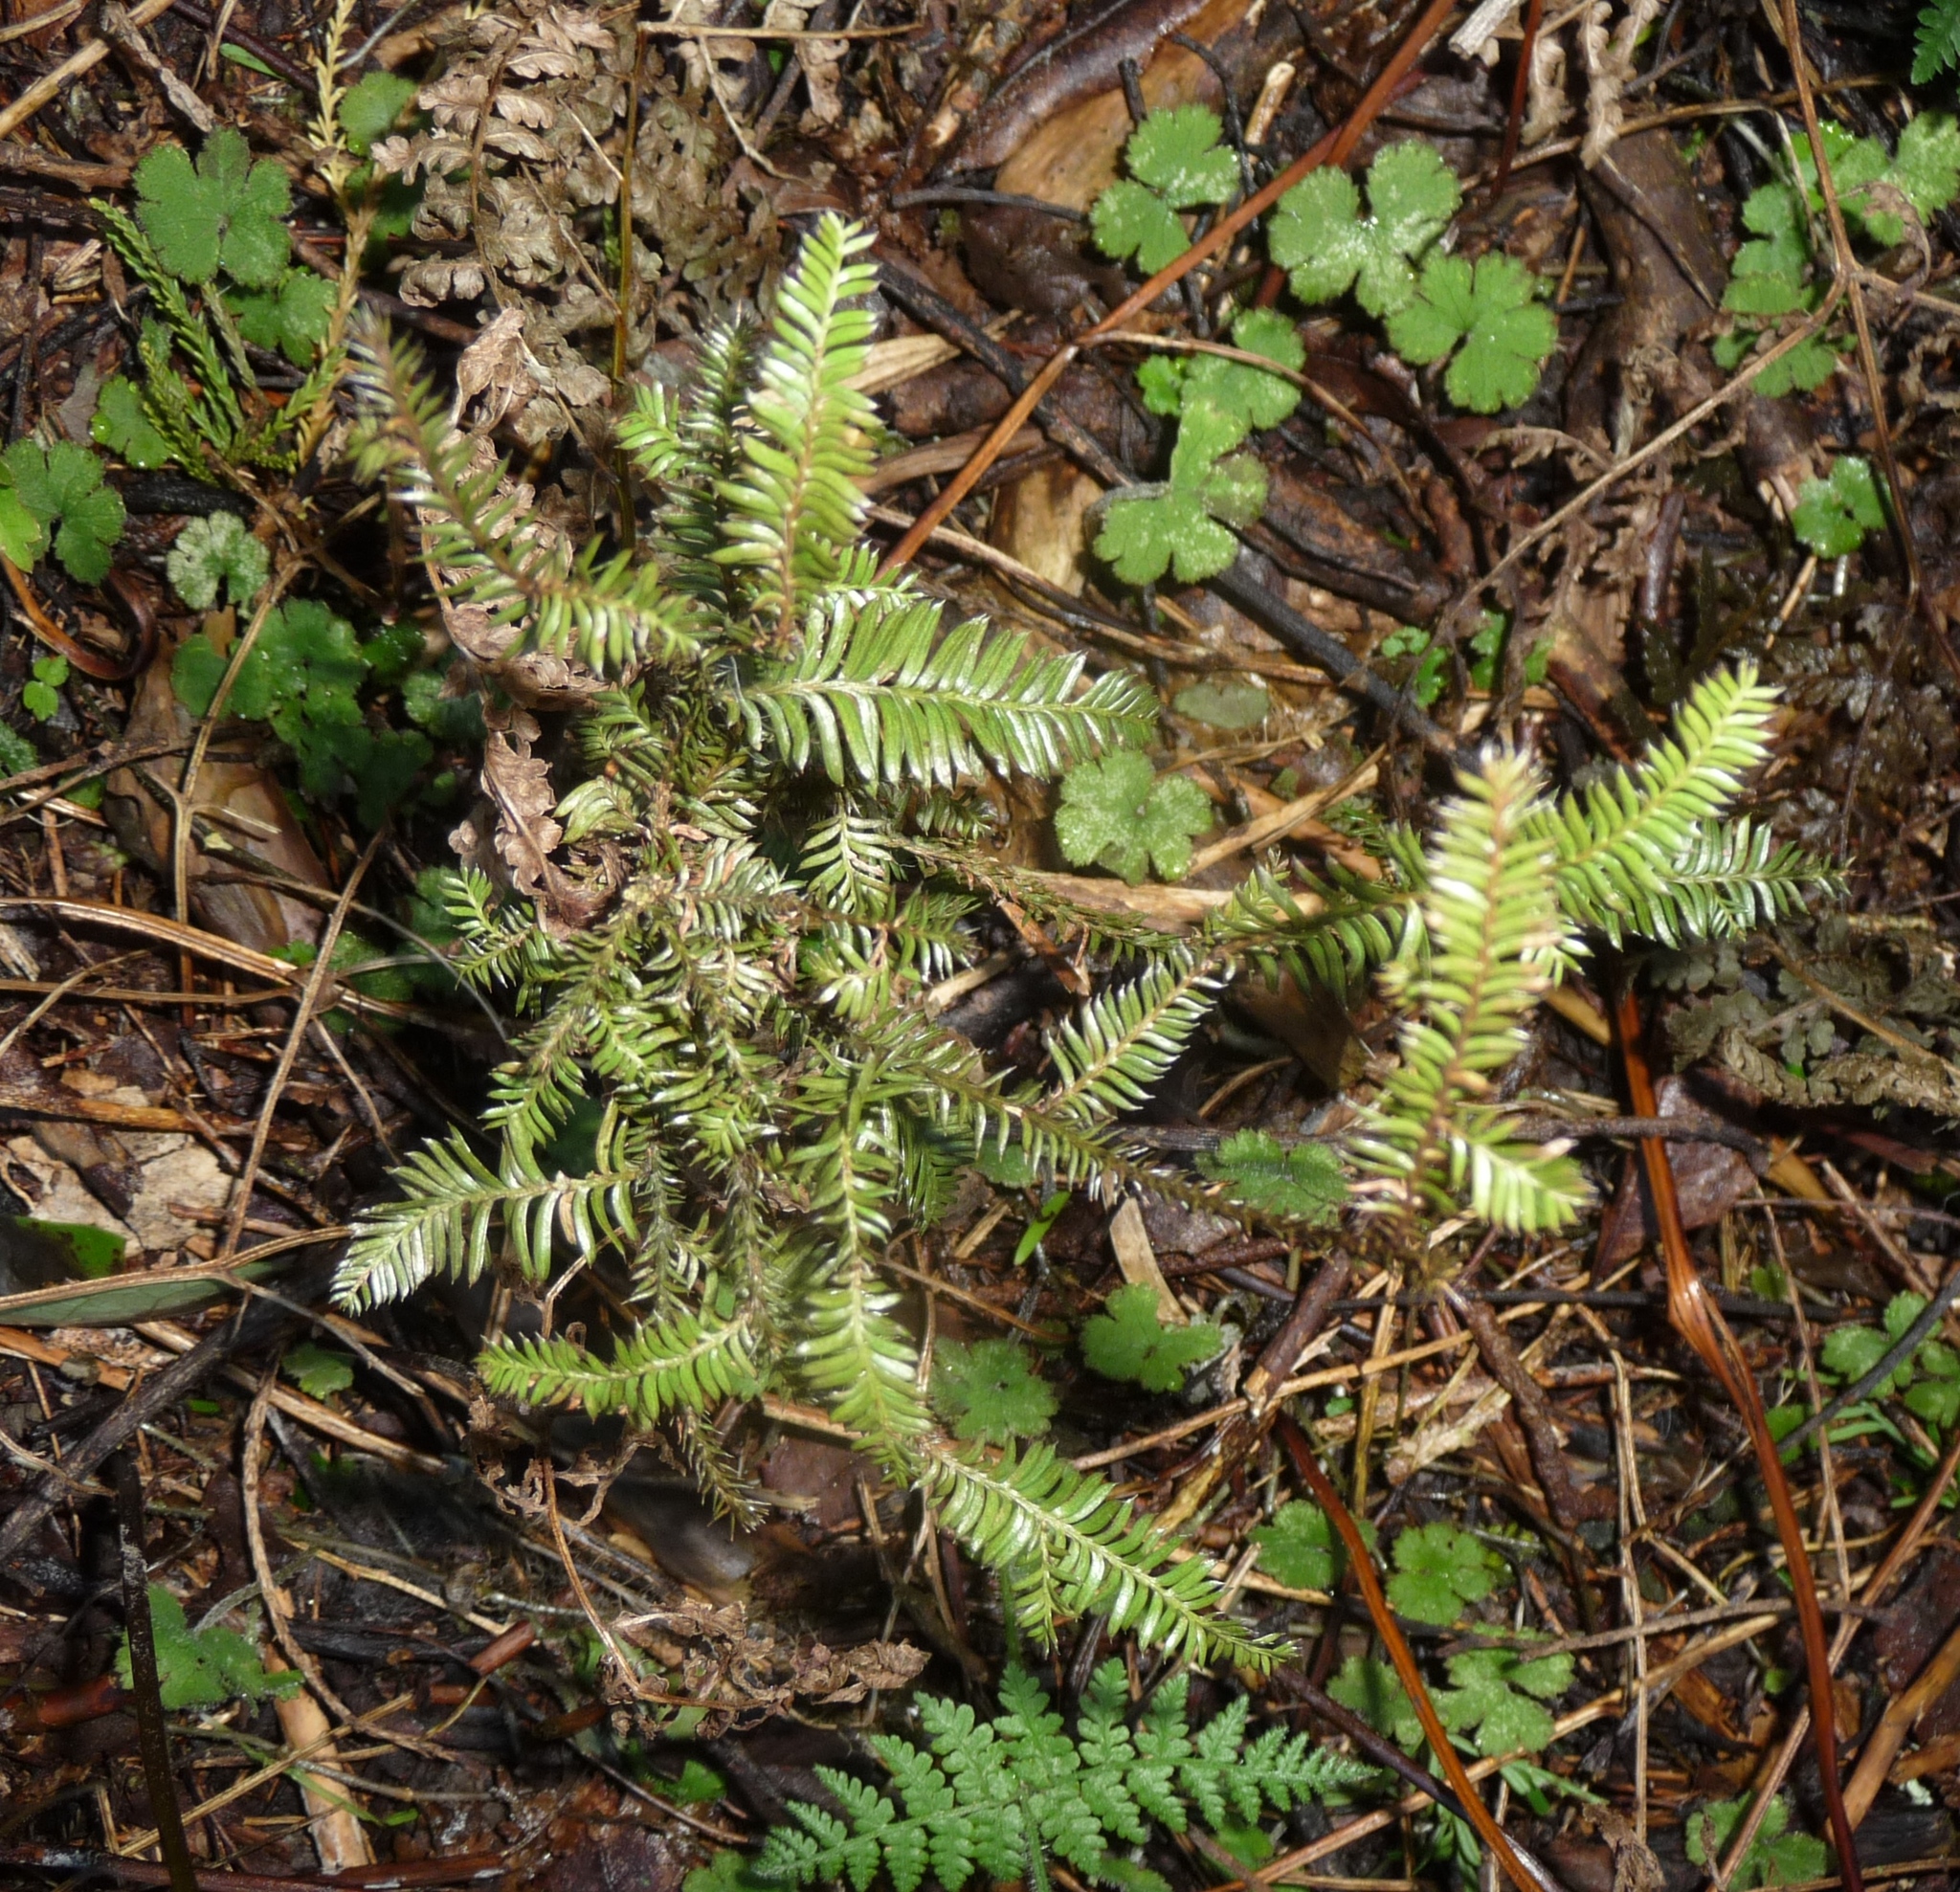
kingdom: Plantae
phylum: Tracheophyta
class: Pinopsida
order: Pinales
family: Podocarpaceae
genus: Dacrycarpus
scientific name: Dacrycarpus dacrydioides
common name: White pine
